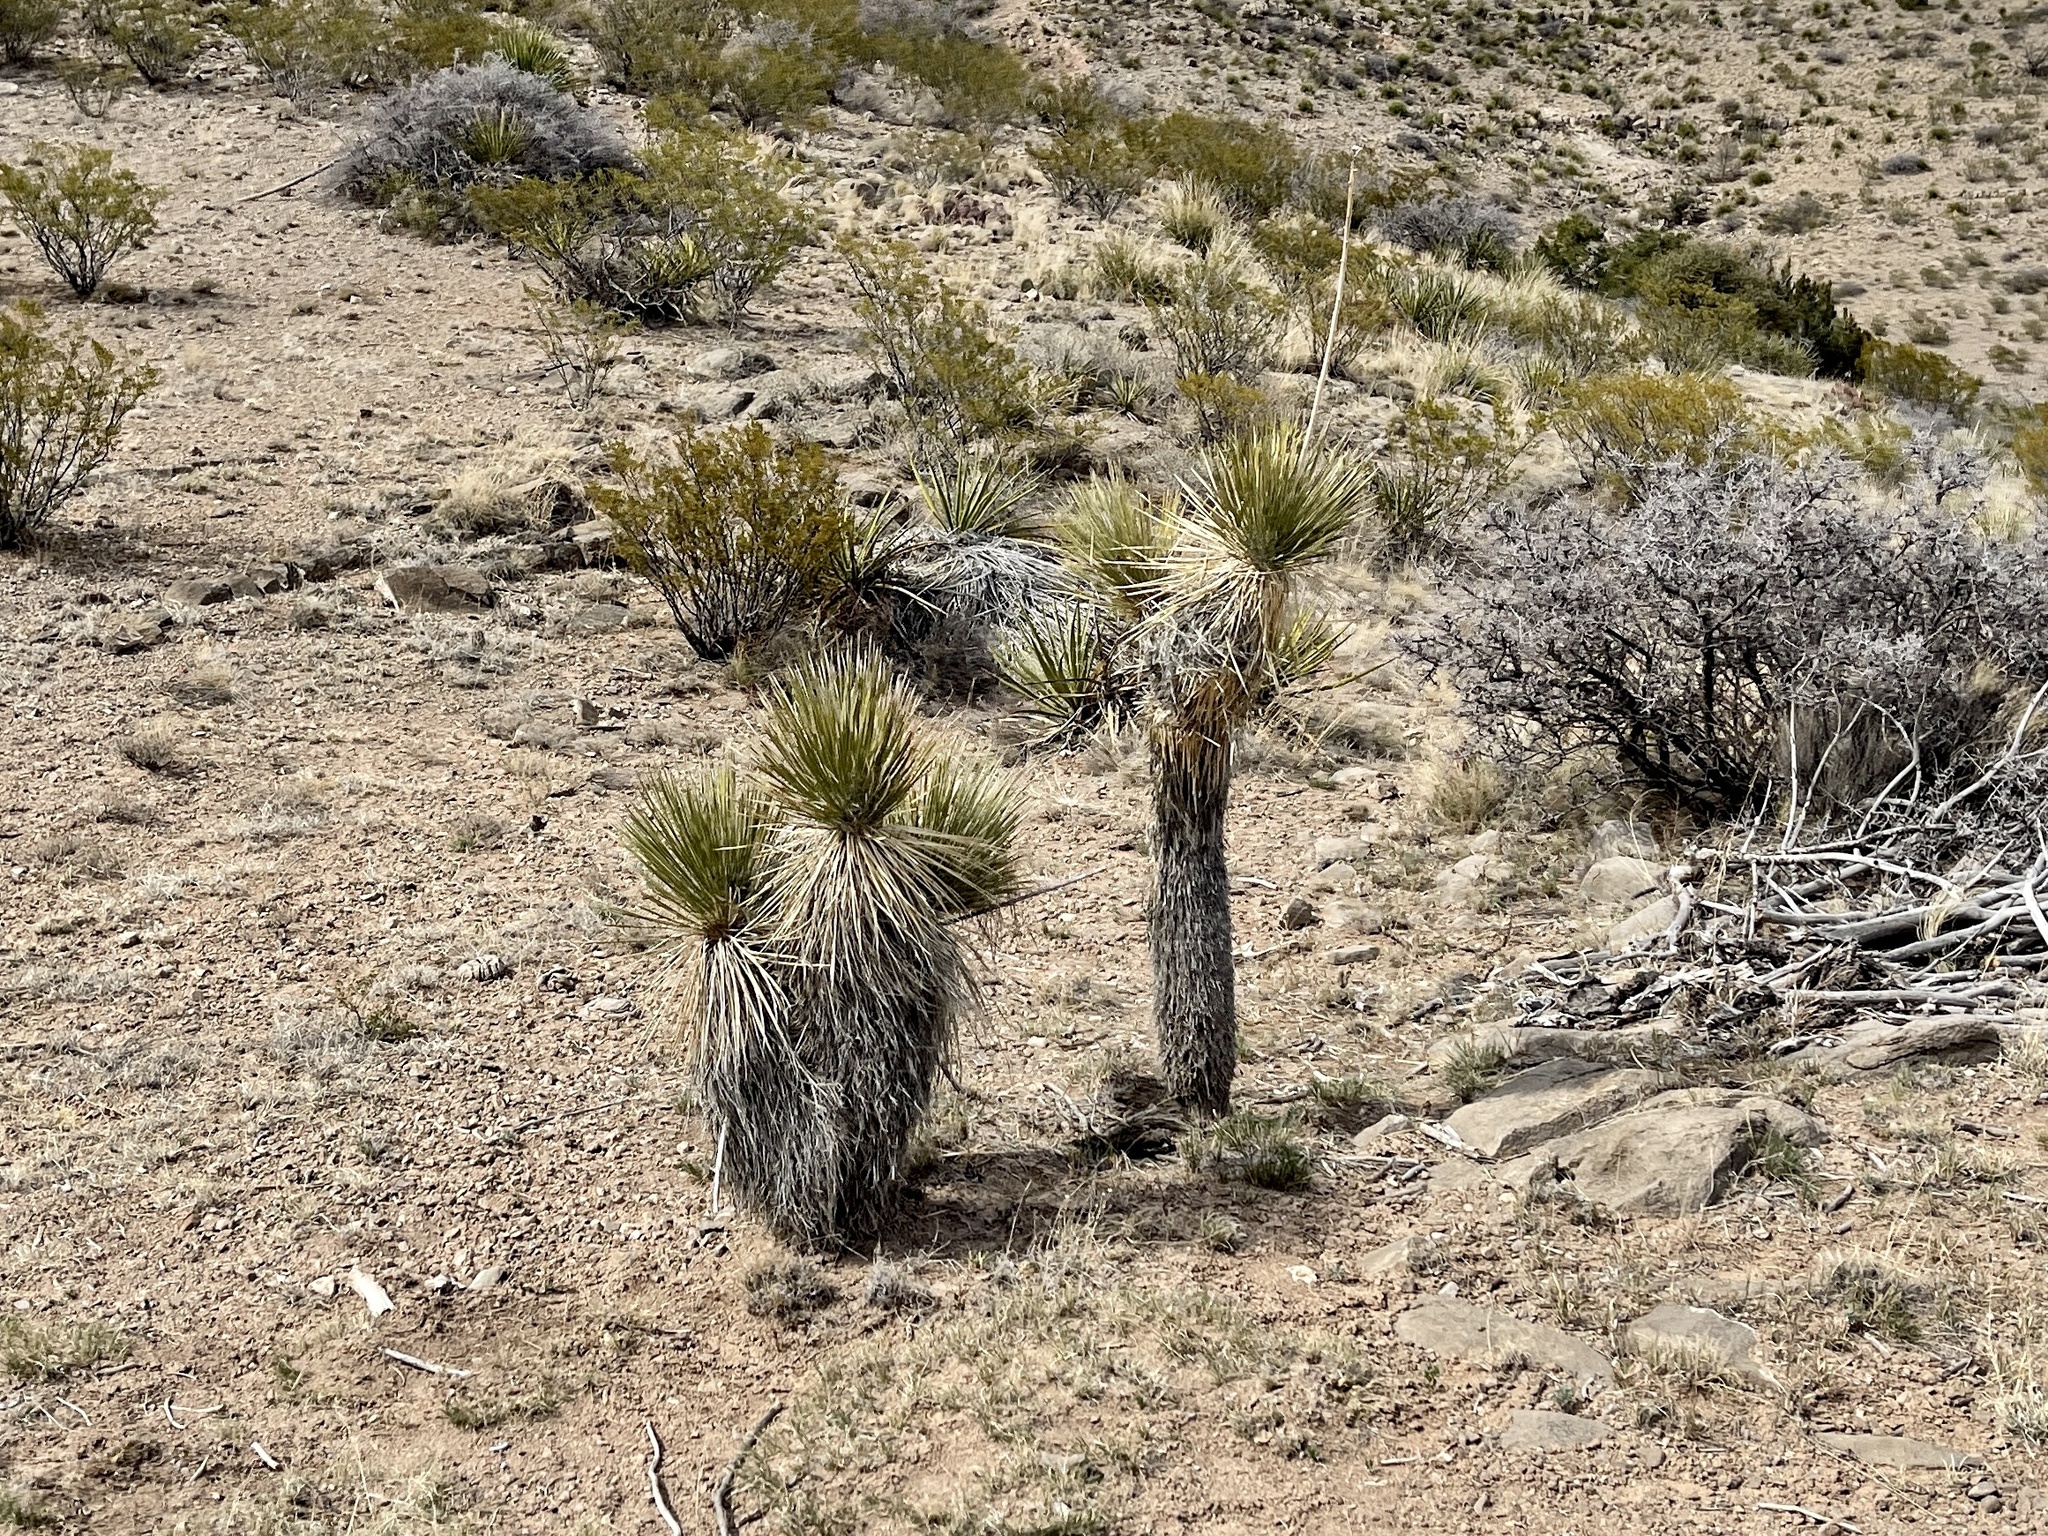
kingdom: Plantae
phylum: Tracheophyta
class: Liliopsida
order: Asparagales
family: Asparagaceae
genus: Yucca
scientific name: Yucca elata
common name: Palmella
